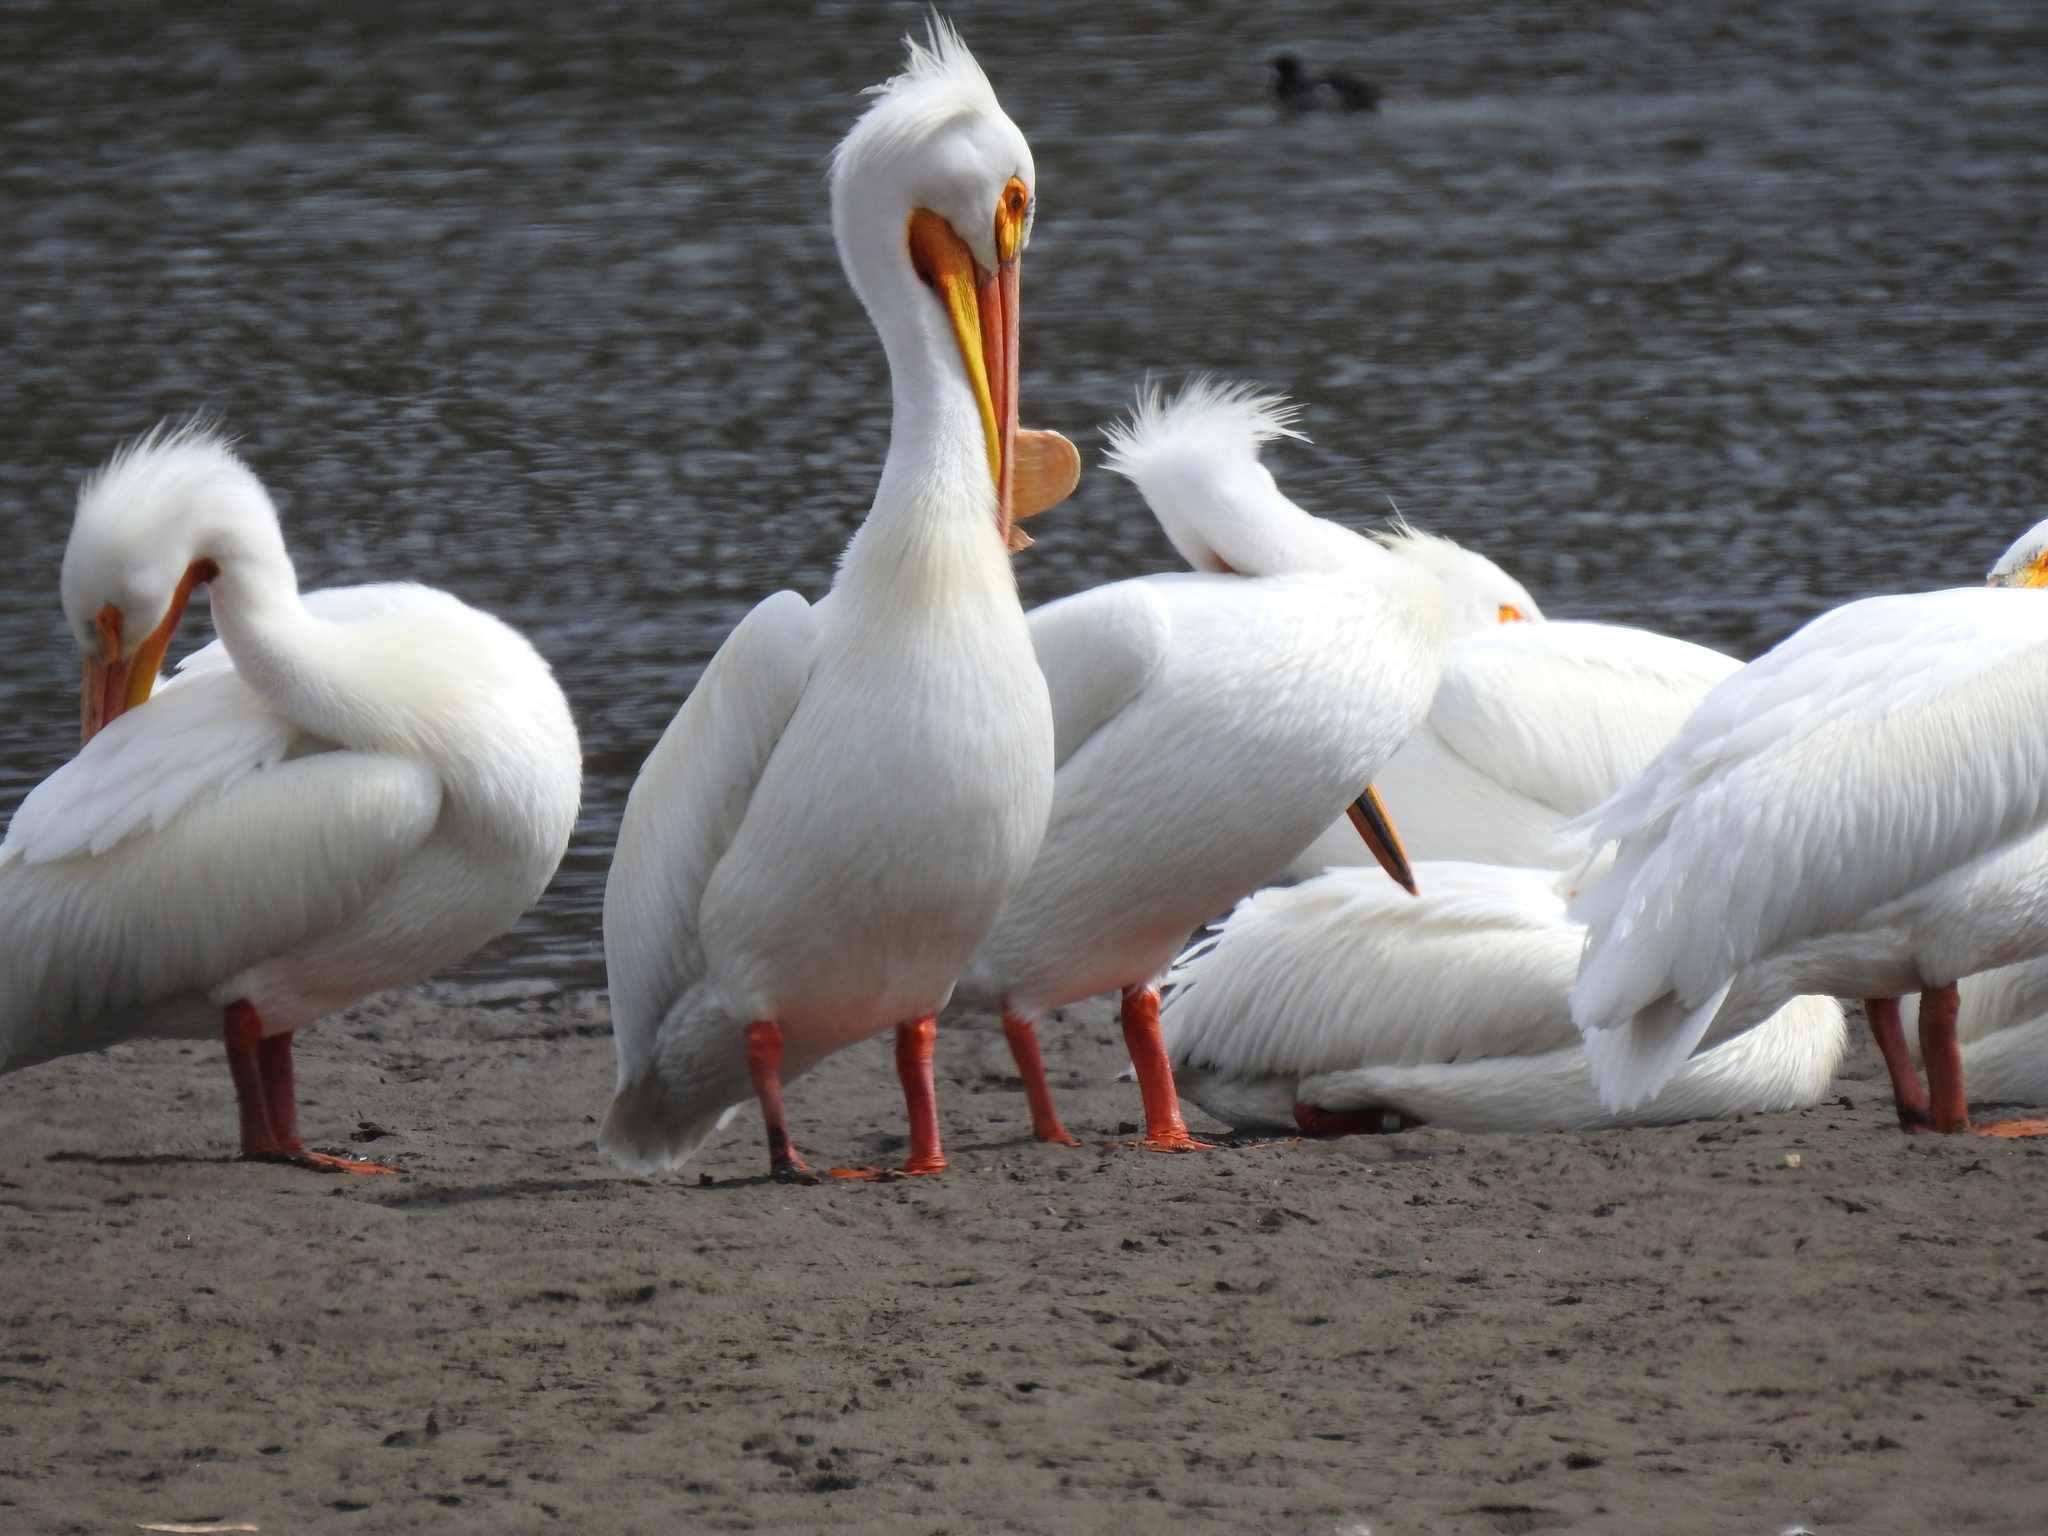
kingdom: Animalia
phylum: Chordata
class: Aves
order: Pelecaniformes
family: Pelecanidae
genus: Pelecanus
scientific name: Pelecanus erythrorhynchos
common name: American white pelican
